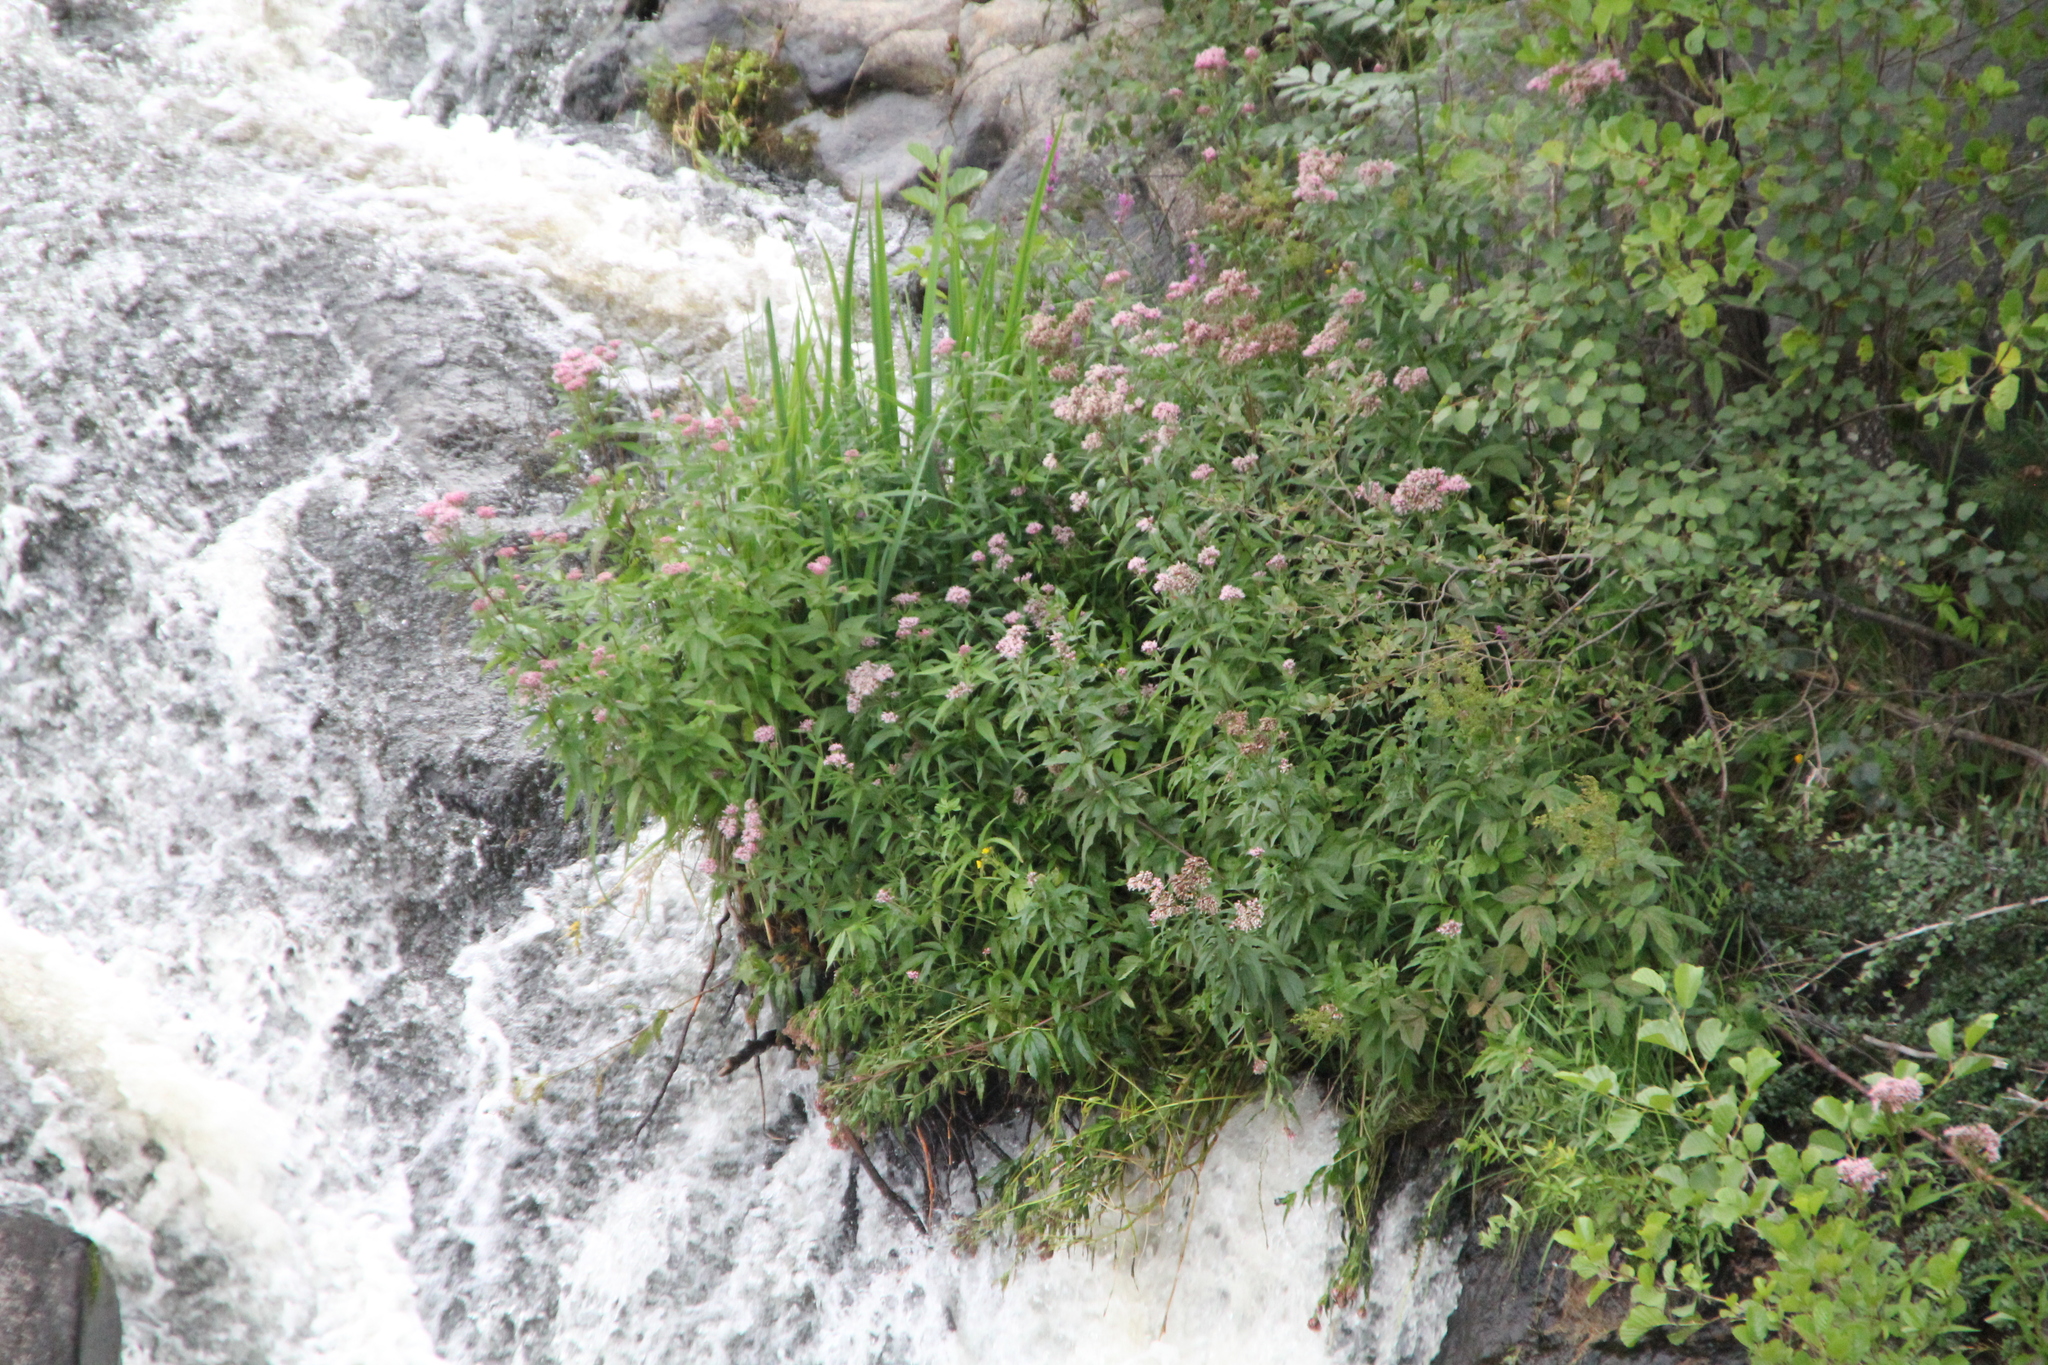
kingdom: Plantae
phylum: Tracheophyta
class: Magnoliopsida
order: Asterales
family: Asteraceae
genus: Eupatorium
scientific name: Eupatorium cannabinum
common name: Hemp-agrimony
